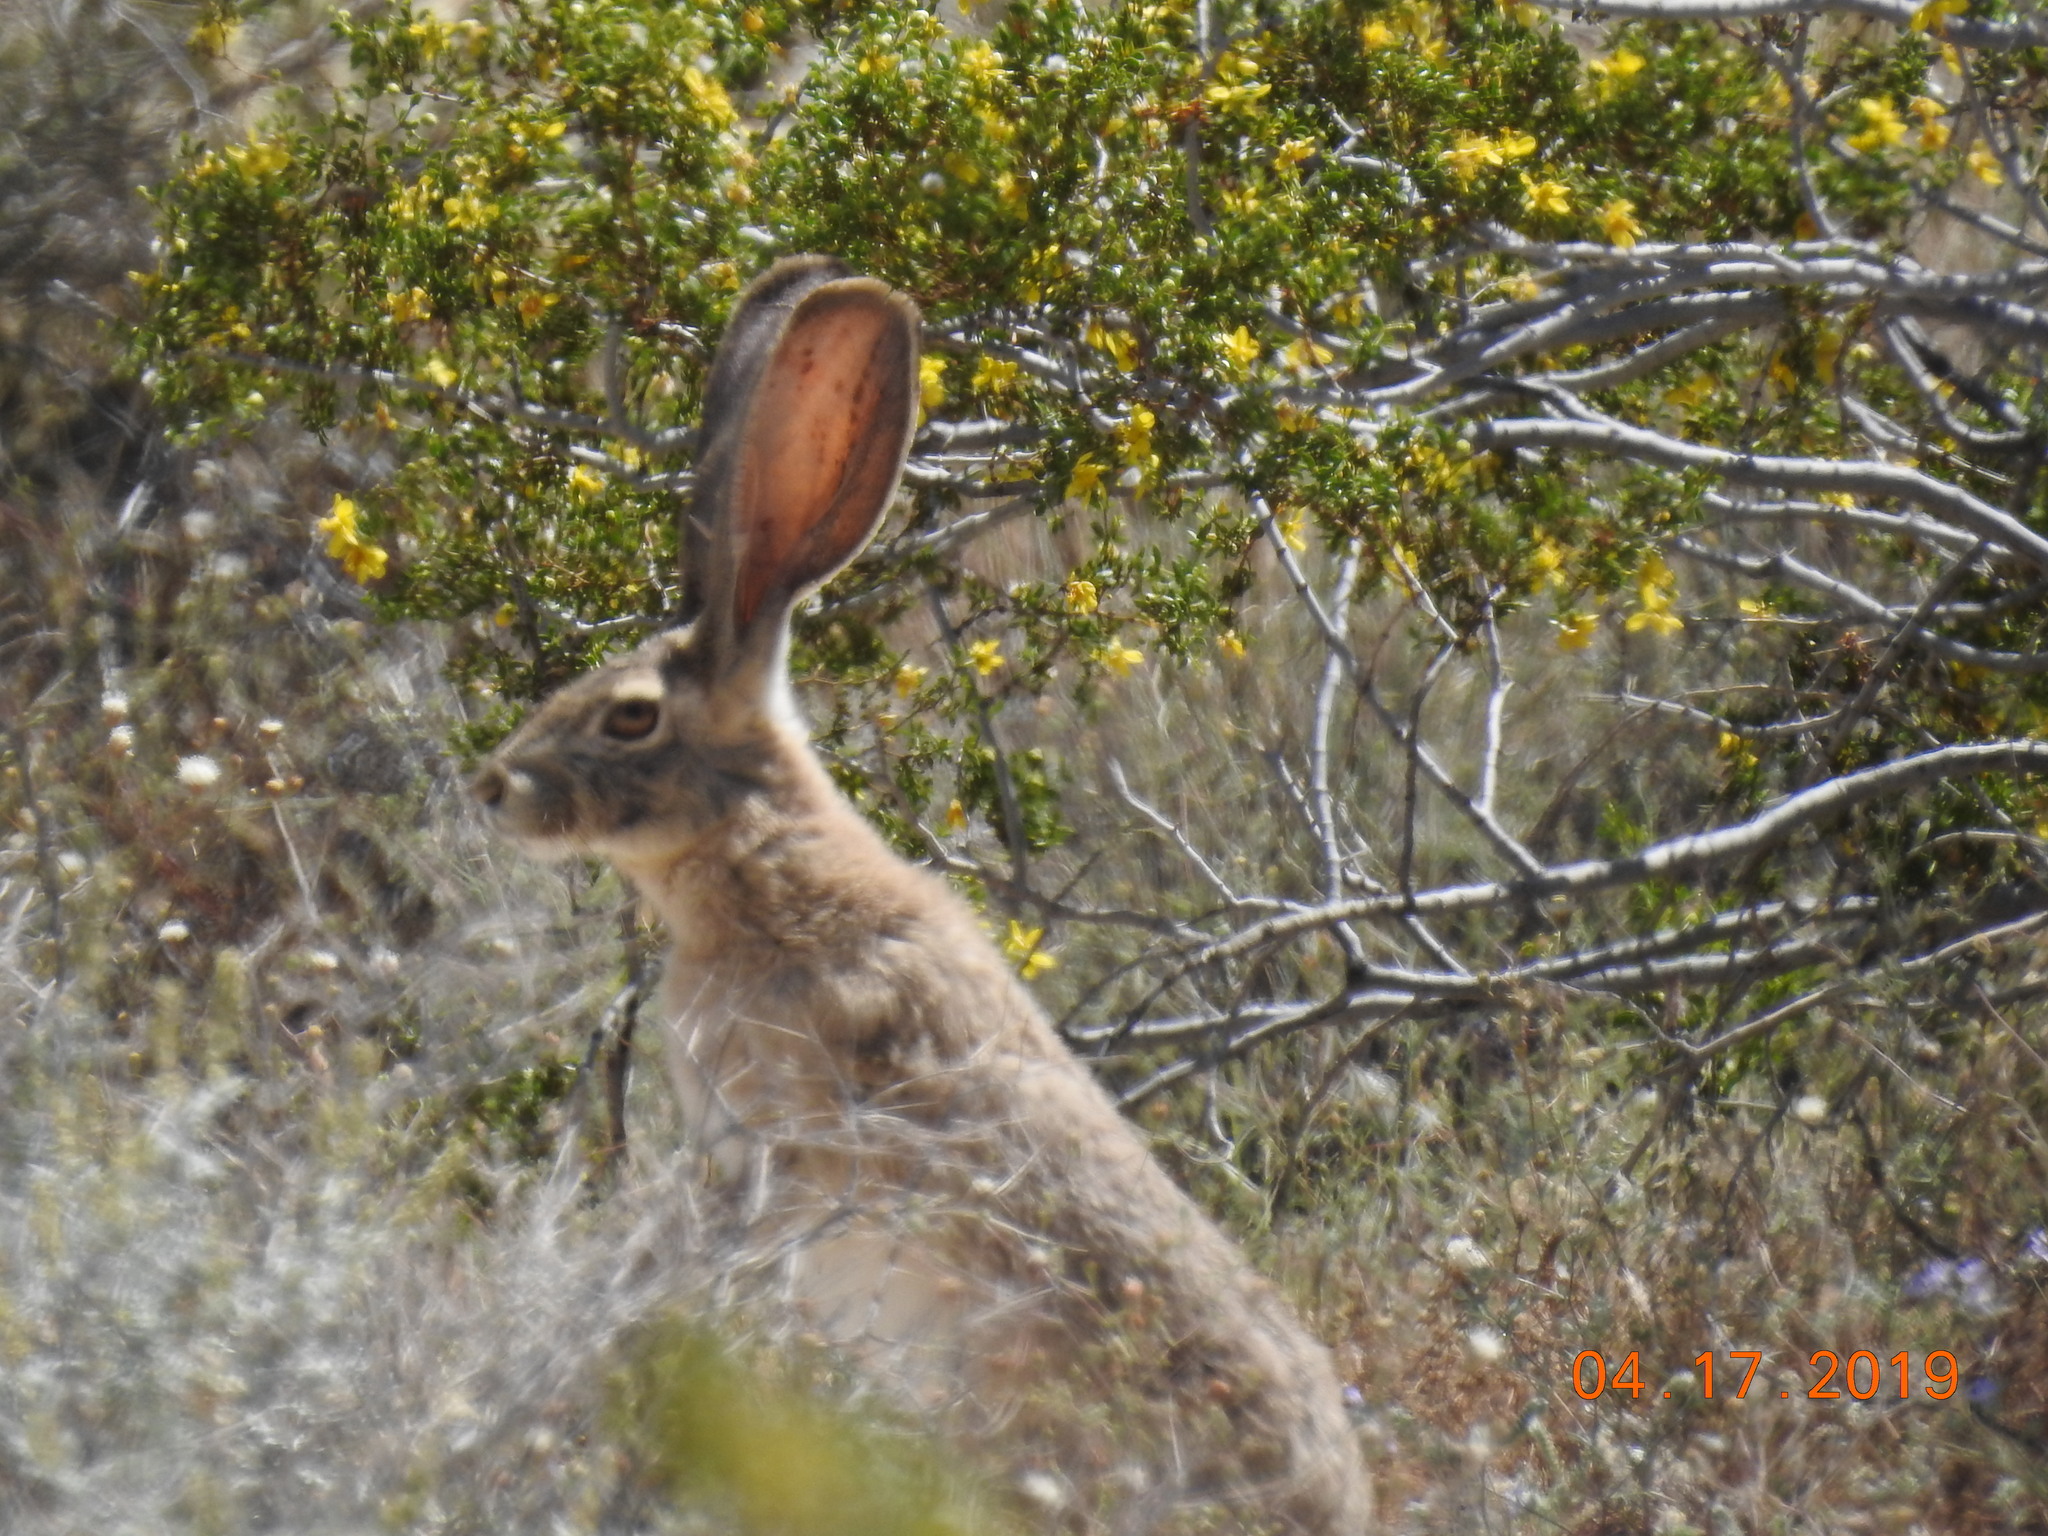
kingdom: Animalia
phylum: Chordata
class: Mammalia
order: Lagomorpha
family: Leporidae
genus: Lepus
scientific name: Lepus californicus
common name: Black-tailed jackrabbit
